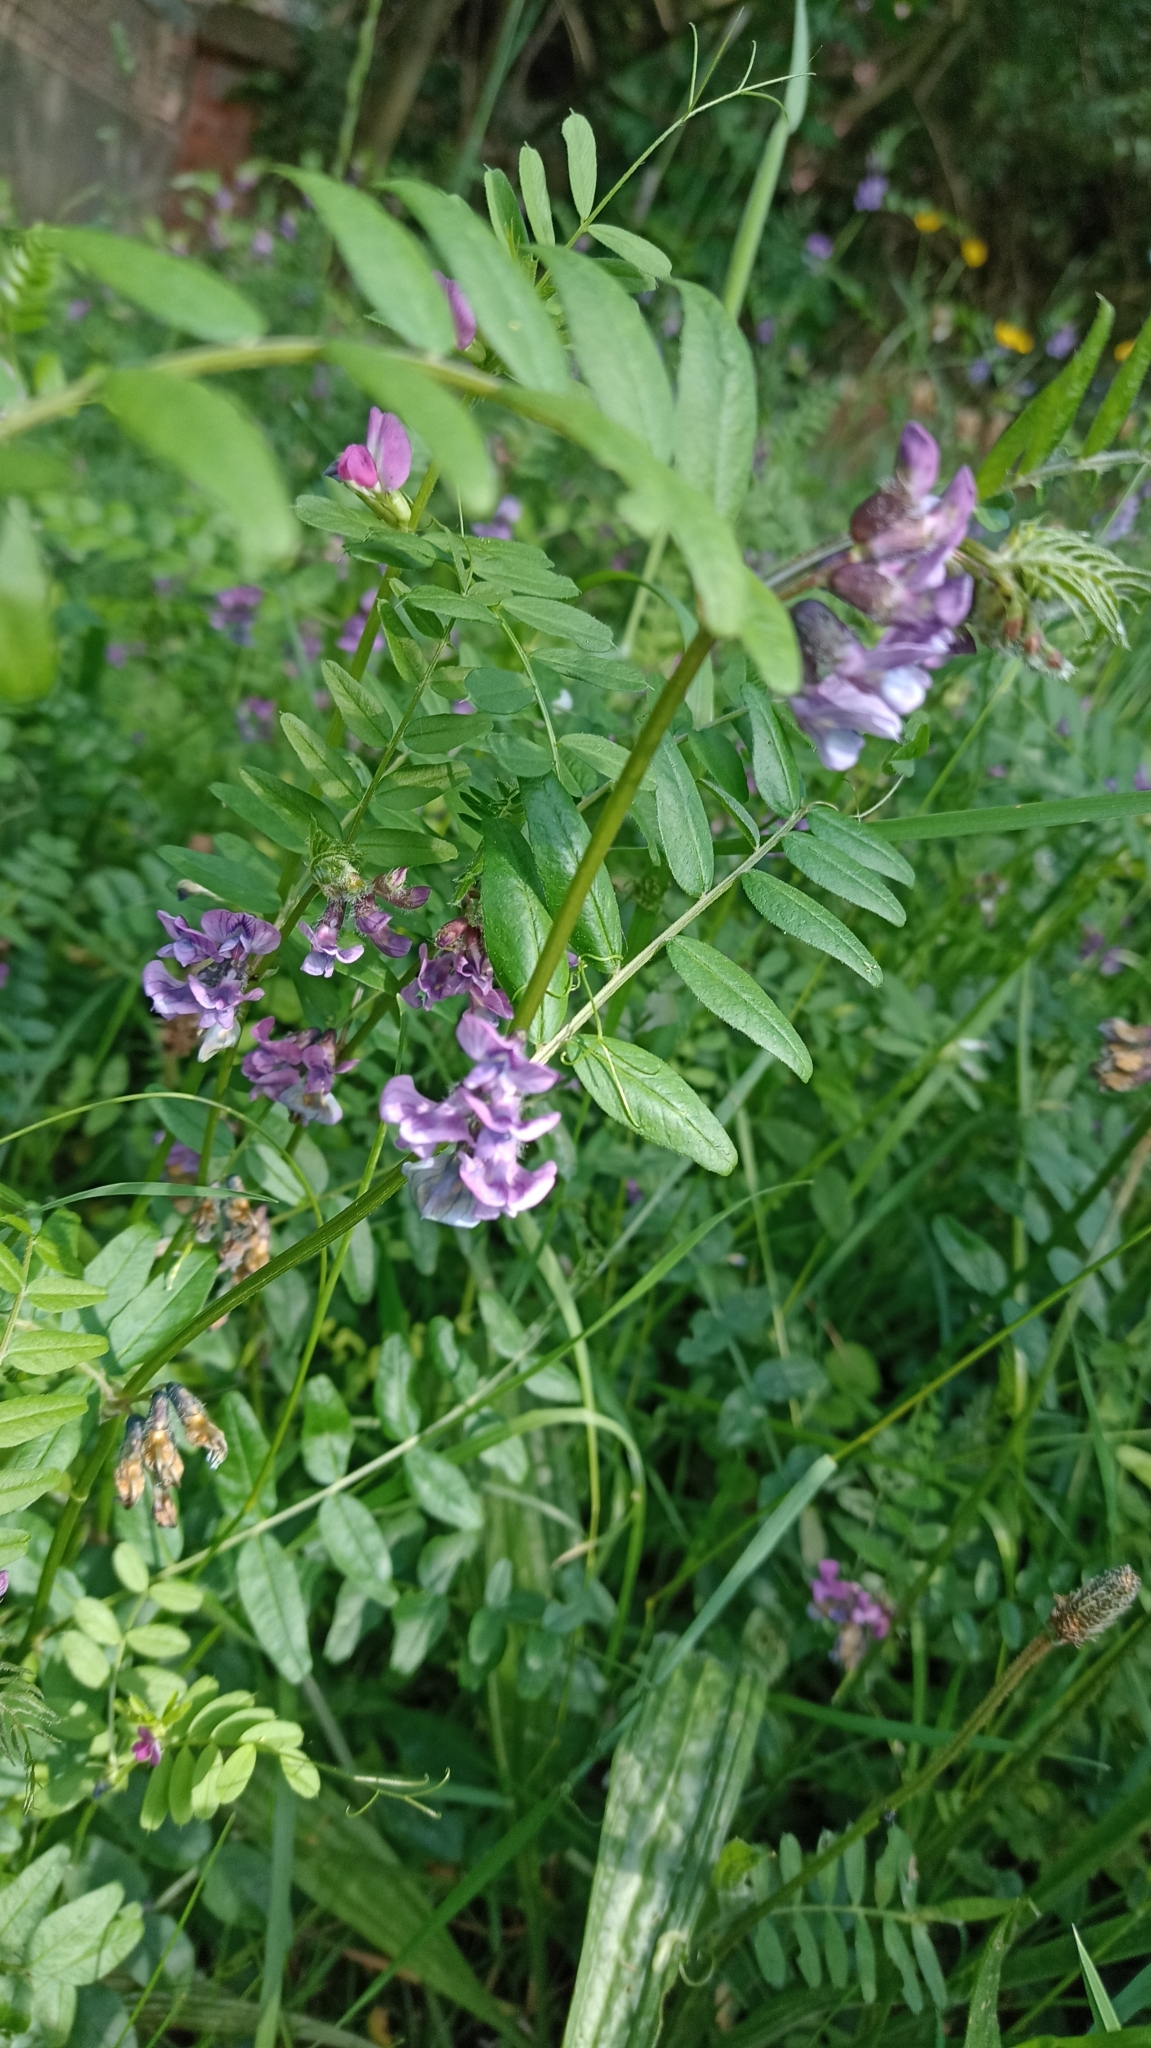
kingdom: Plantae
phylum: Tracheophyta
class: Magnoliopsida
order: Fabales
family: Fabaceae
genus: Vicia
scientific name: Vicia sepium
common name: Bush vetch
